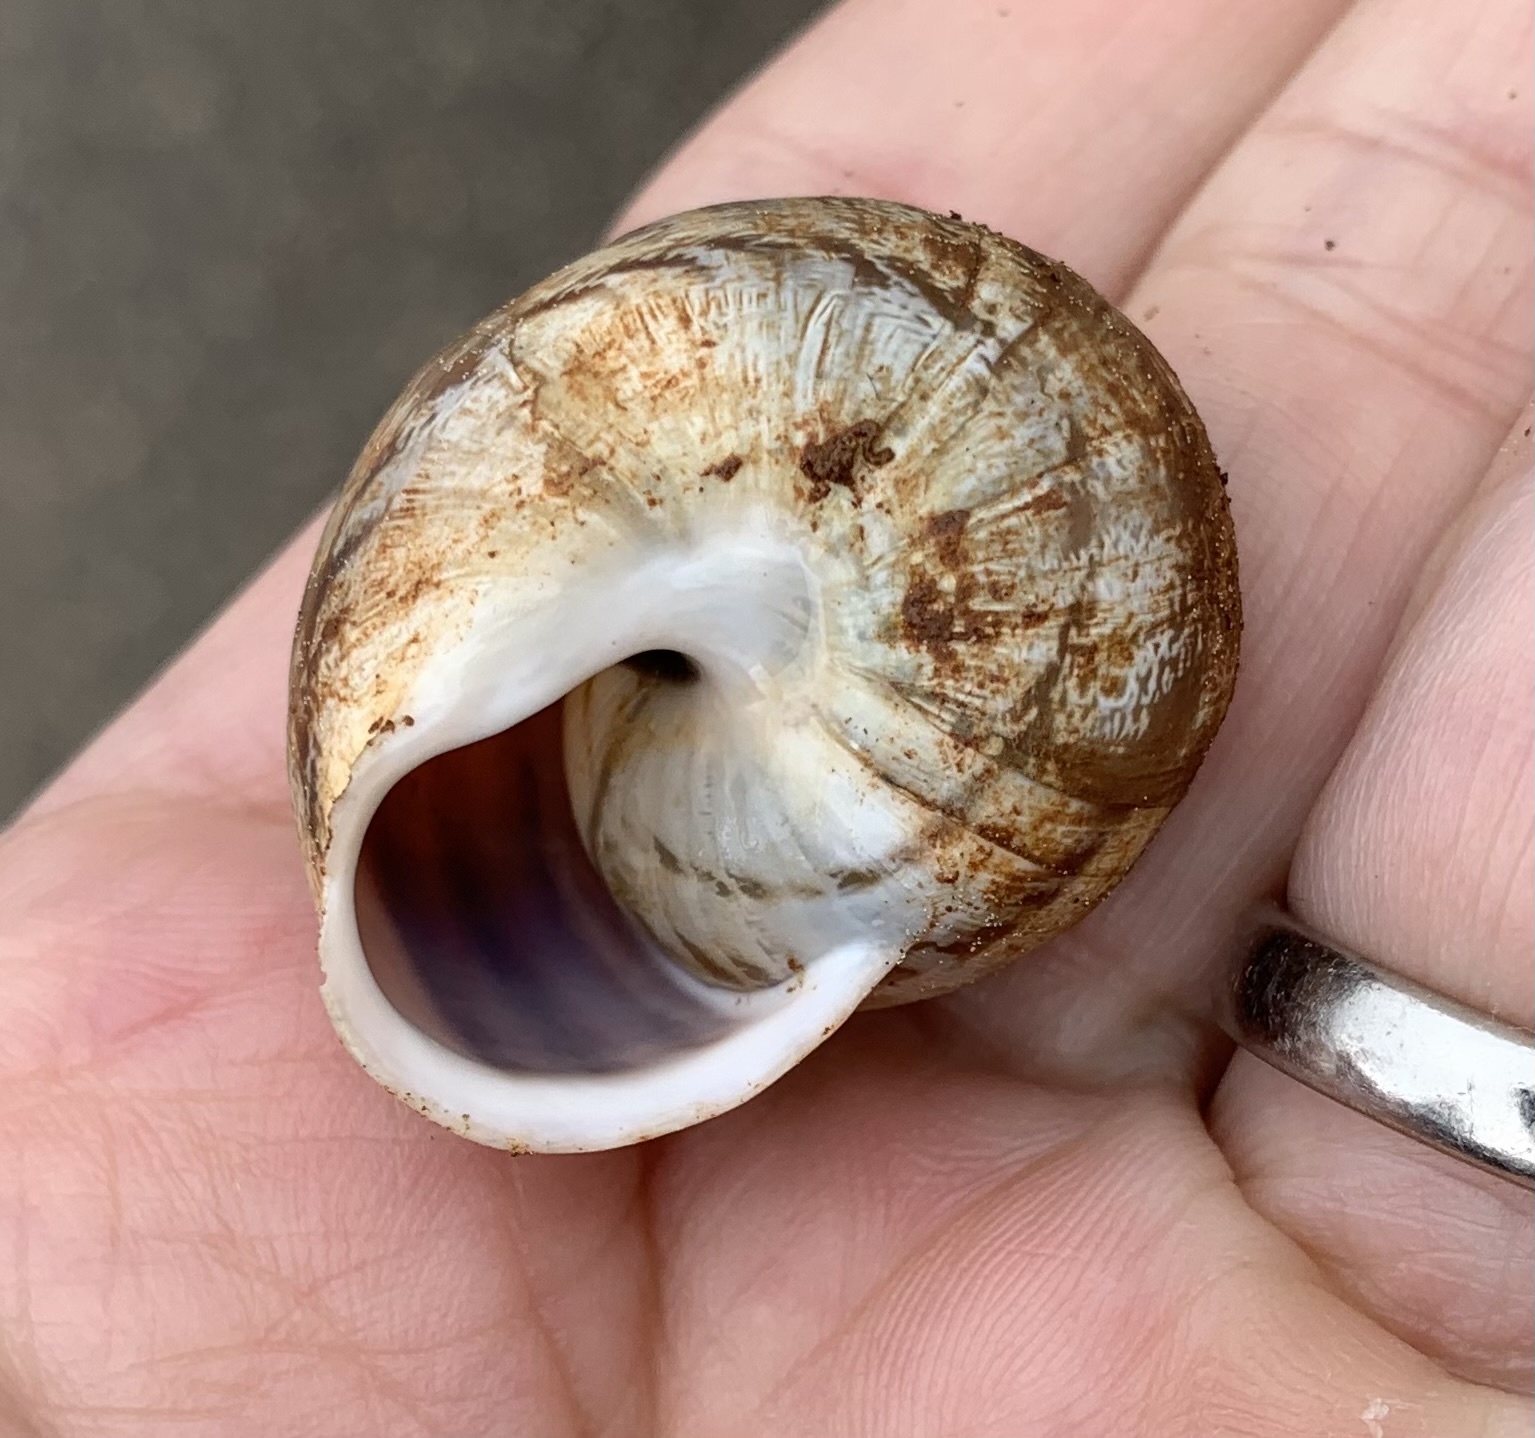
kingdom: Animalia
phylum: Mollusca
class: Gastropoda
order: Stylommatophora
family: Helicidae
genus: Eobania
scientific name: Eobania vermiculata
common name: Chocolateband snail
